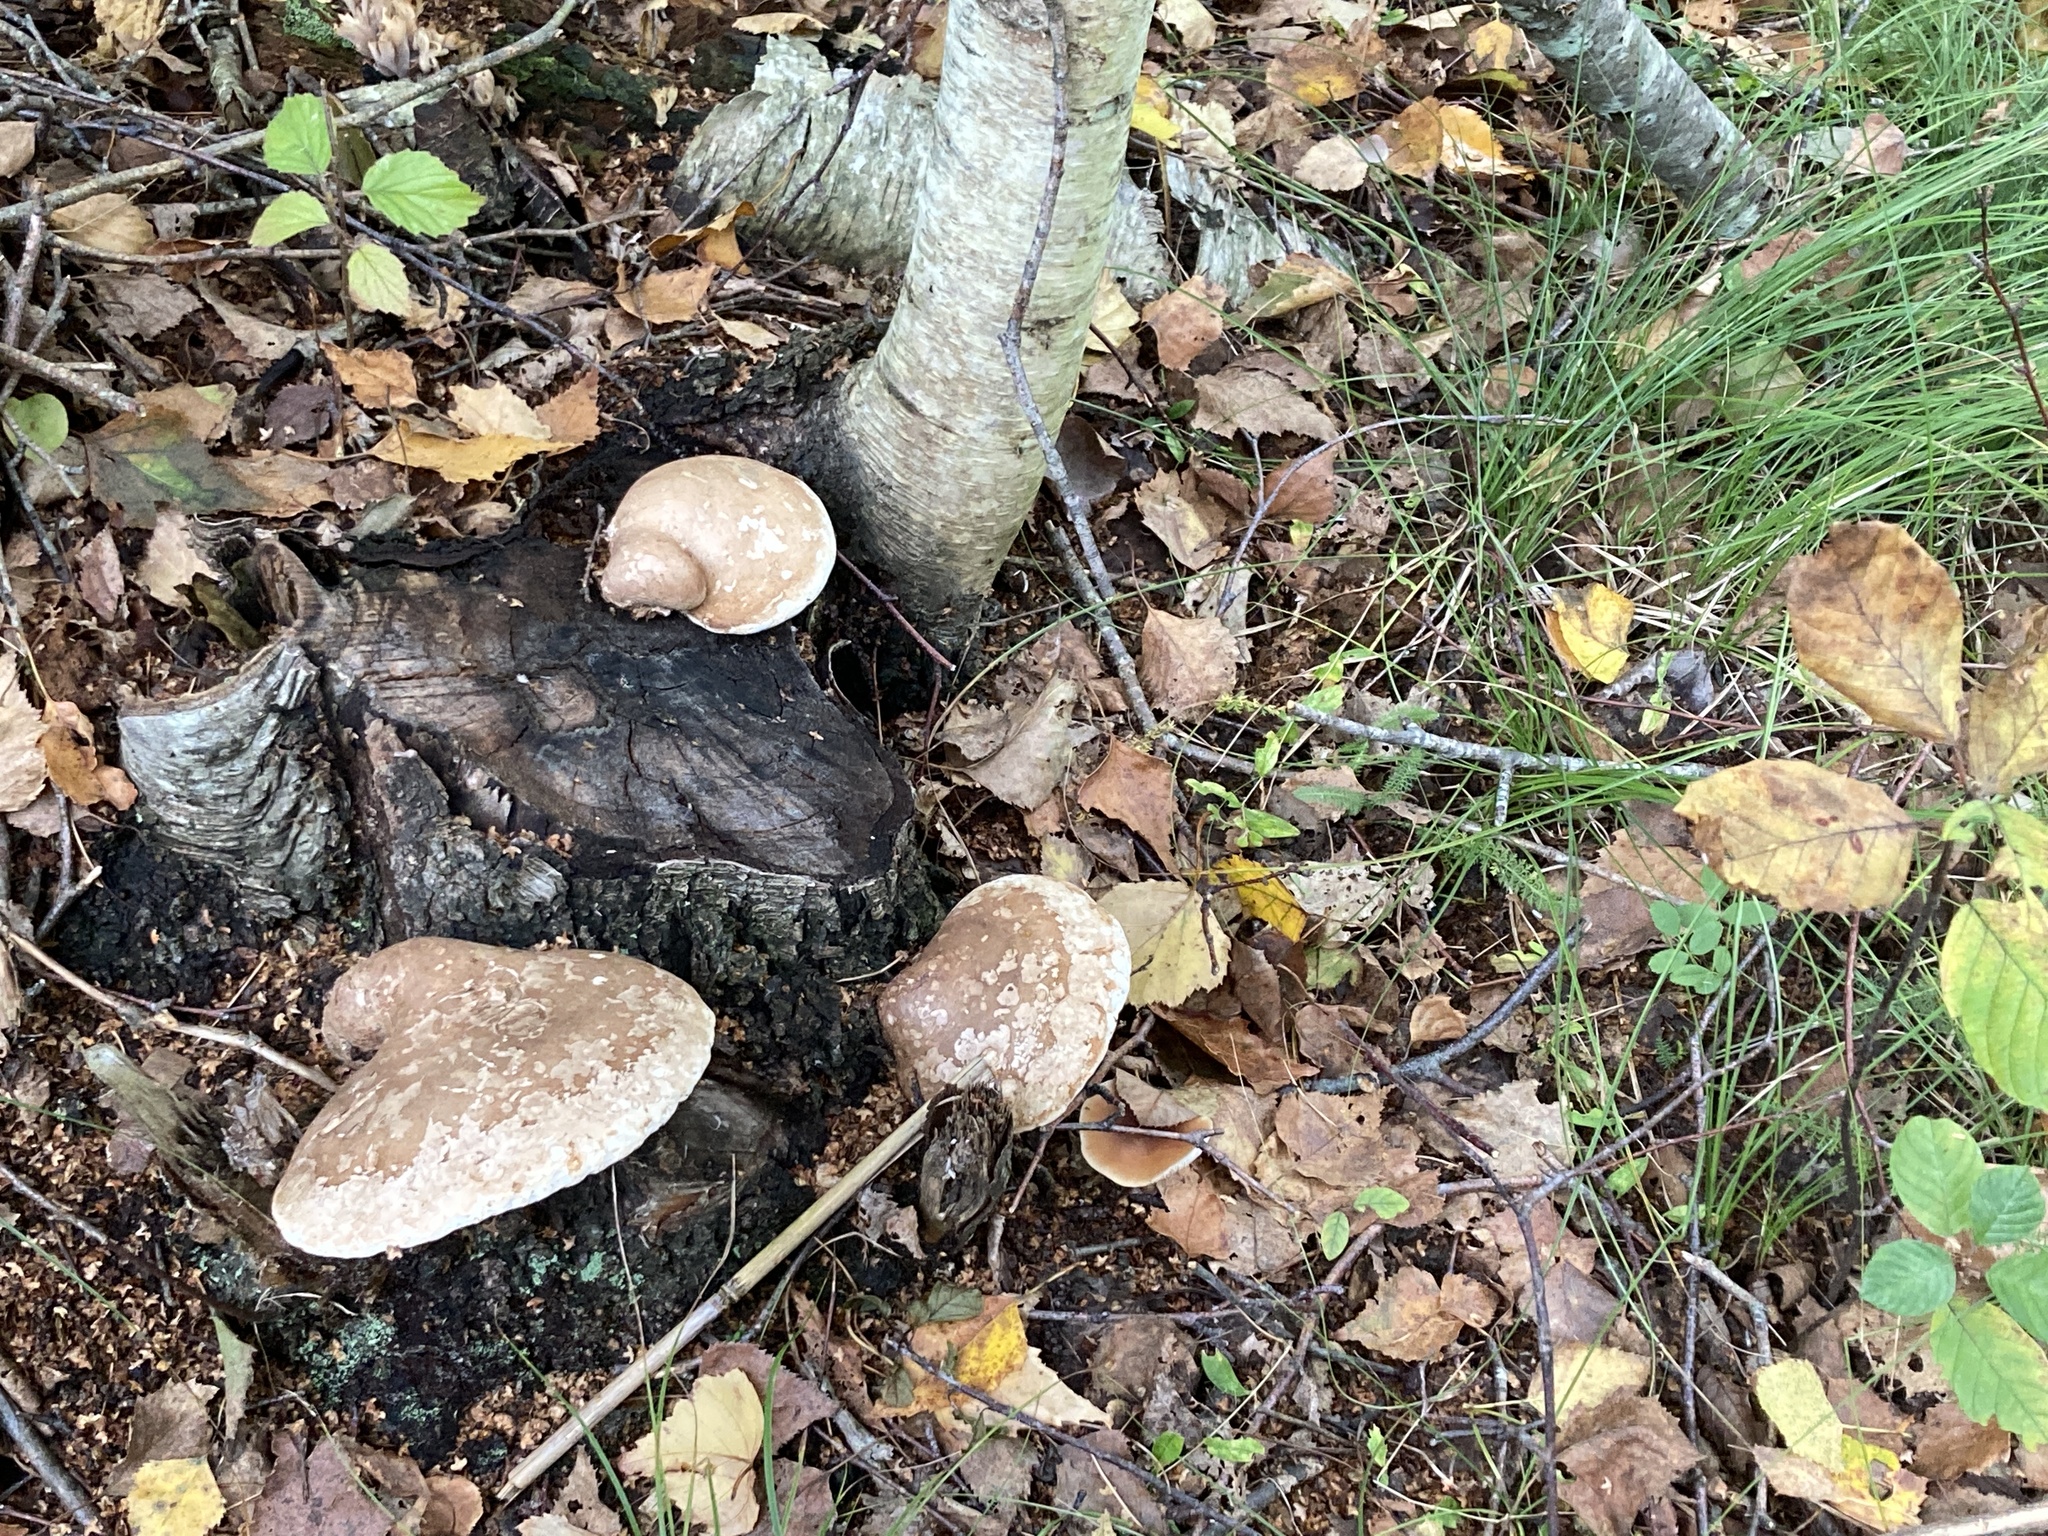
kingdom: Fungi
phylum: Basidiomycota
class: Agaricomycetes
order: Polyporales
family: Fomitopsidaceae
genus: Fomitopsis
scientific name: Fomitopsis betulina
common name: Birch polypore
